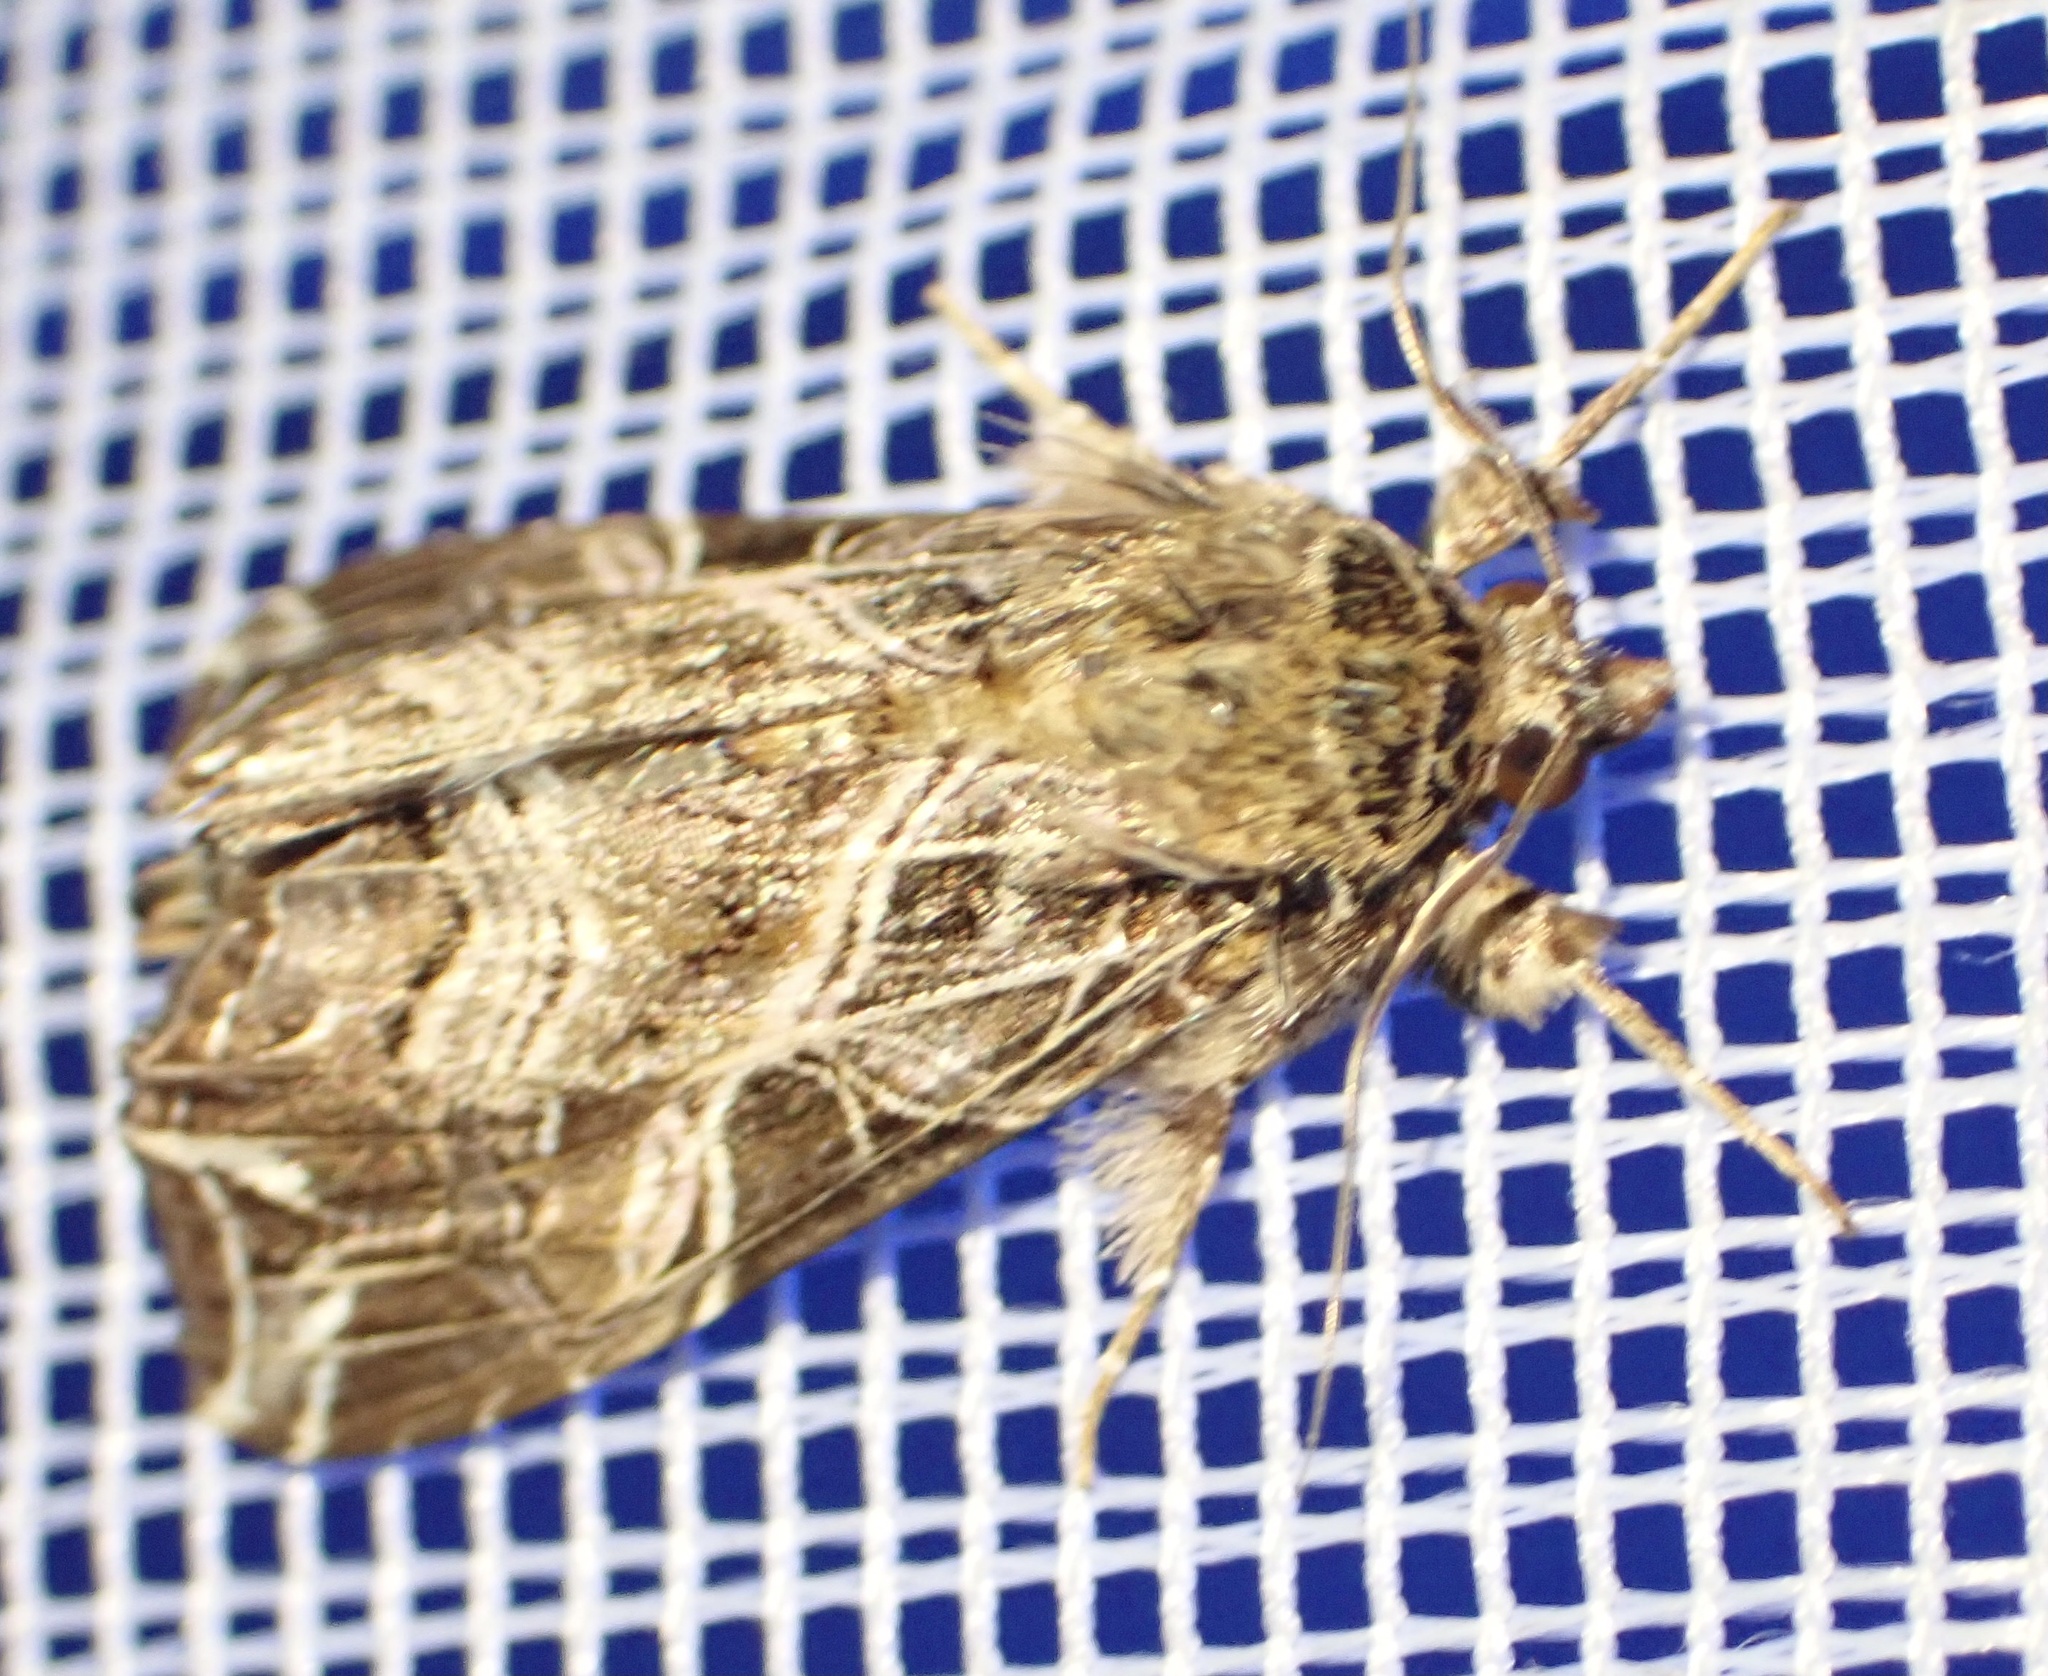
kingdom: Animalia
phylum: Arthropoda
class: Insecta
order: Lepidoptera
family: Noctuidae
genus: Callopistria
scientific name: Callopistria maillardi
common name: Cutworm
